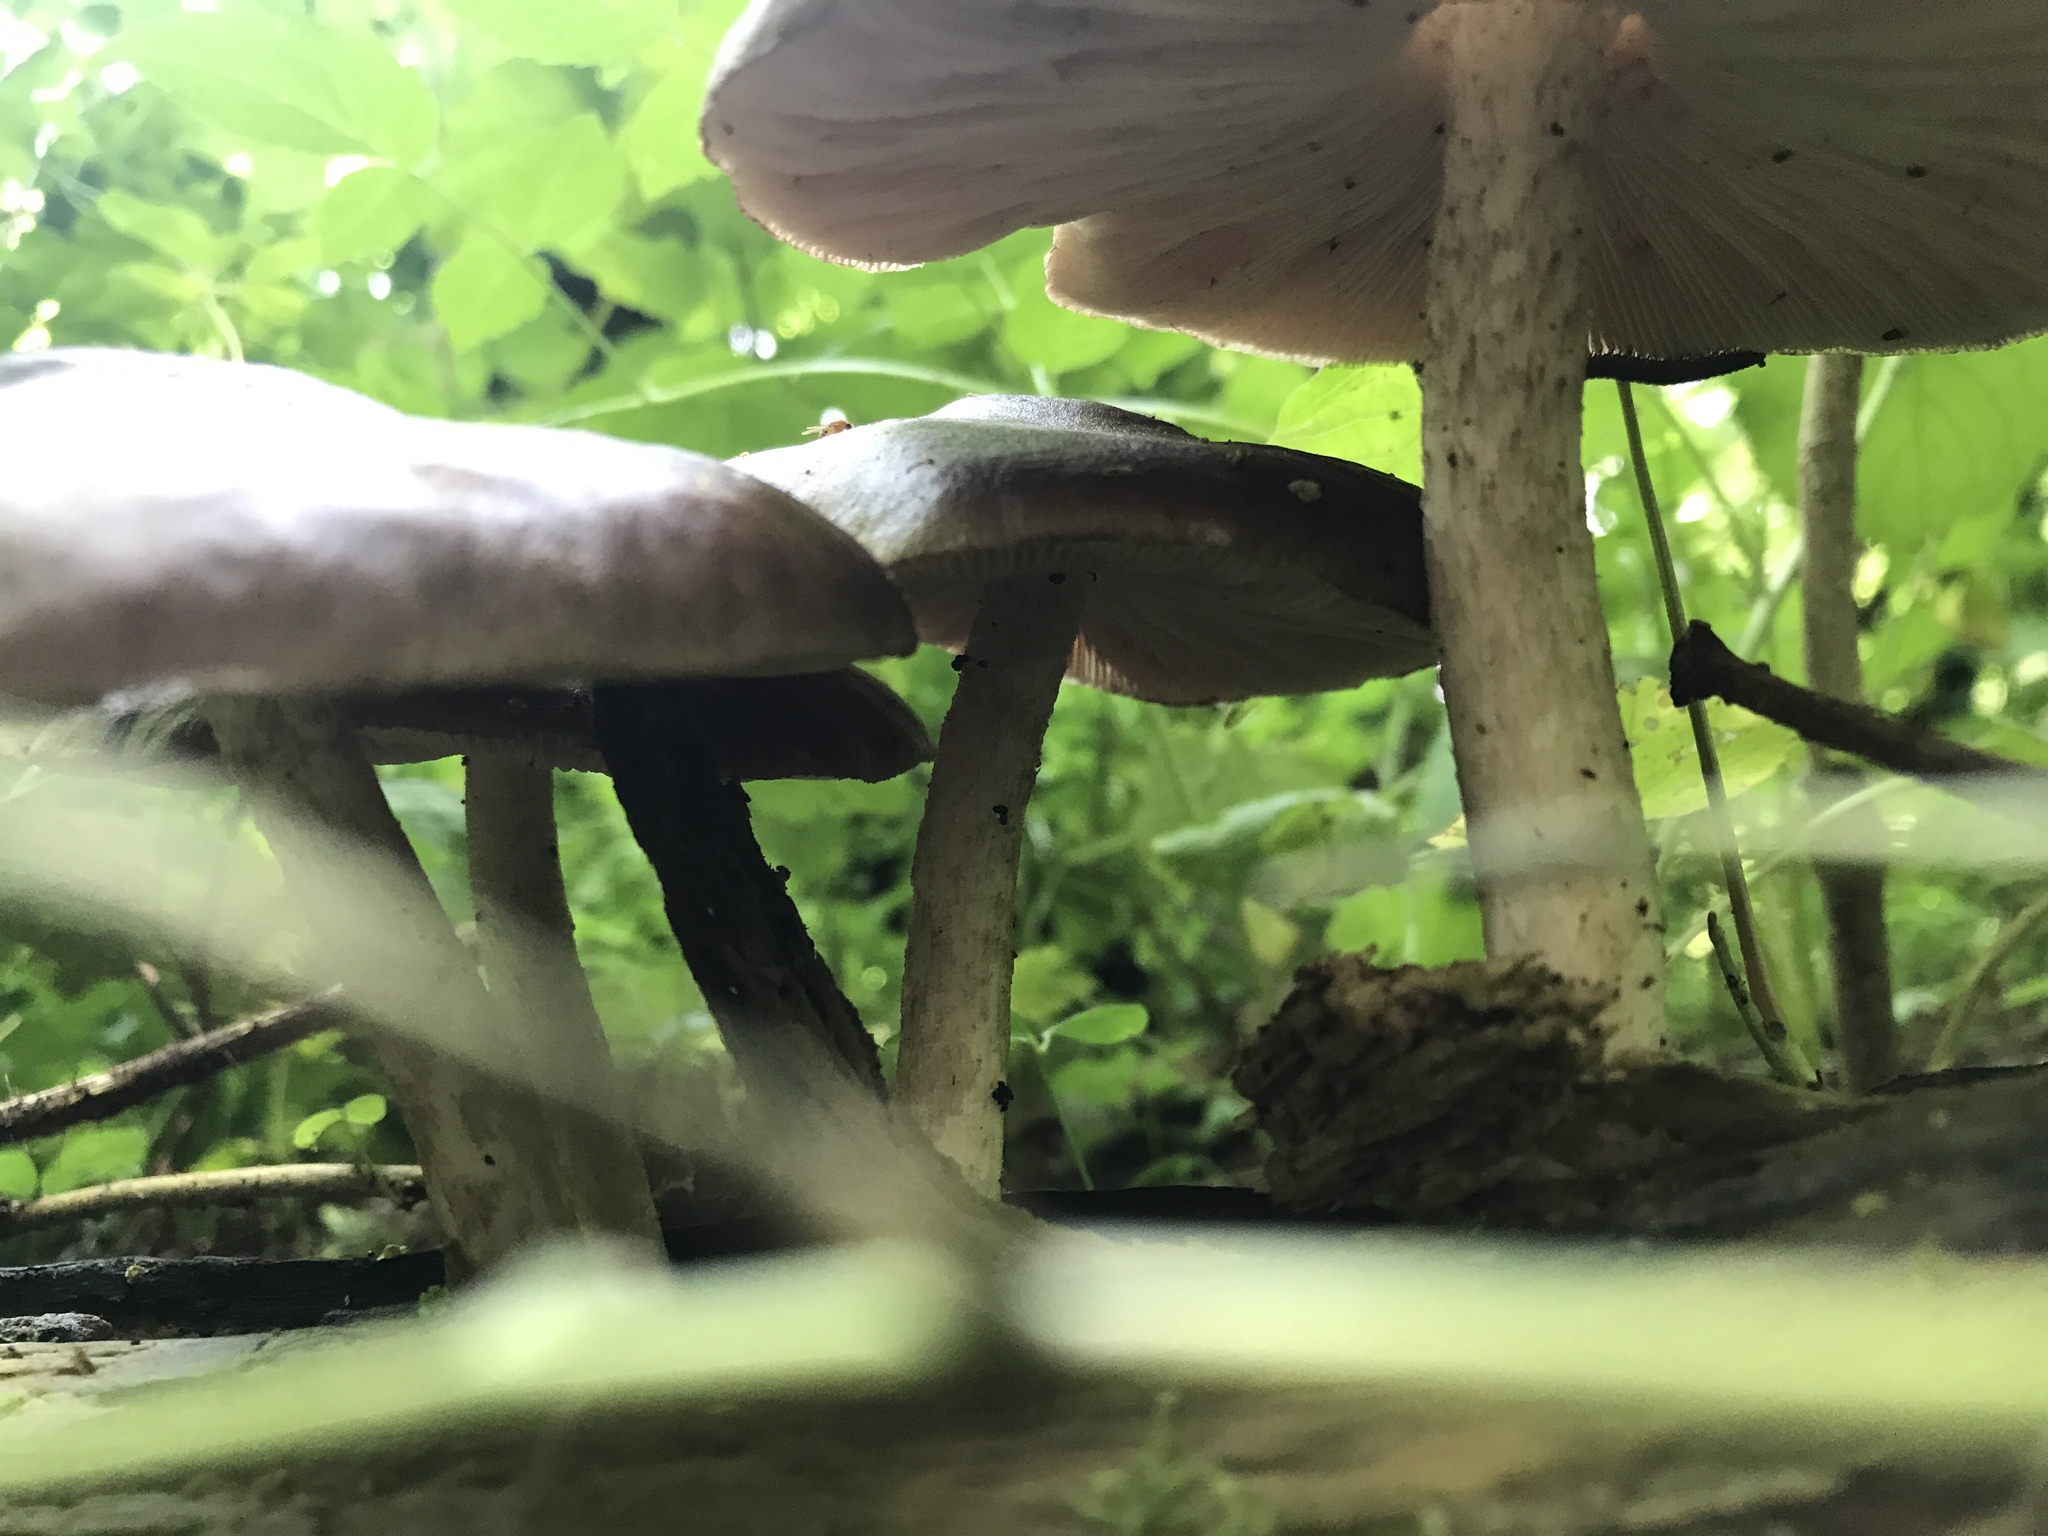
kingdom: Fungi
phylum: Basidiomycota
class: Agaricomycetes
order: Agaricales
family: Pluteaceae
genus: Pluteus
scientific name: Pluteus cervinus
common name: Deer shield
